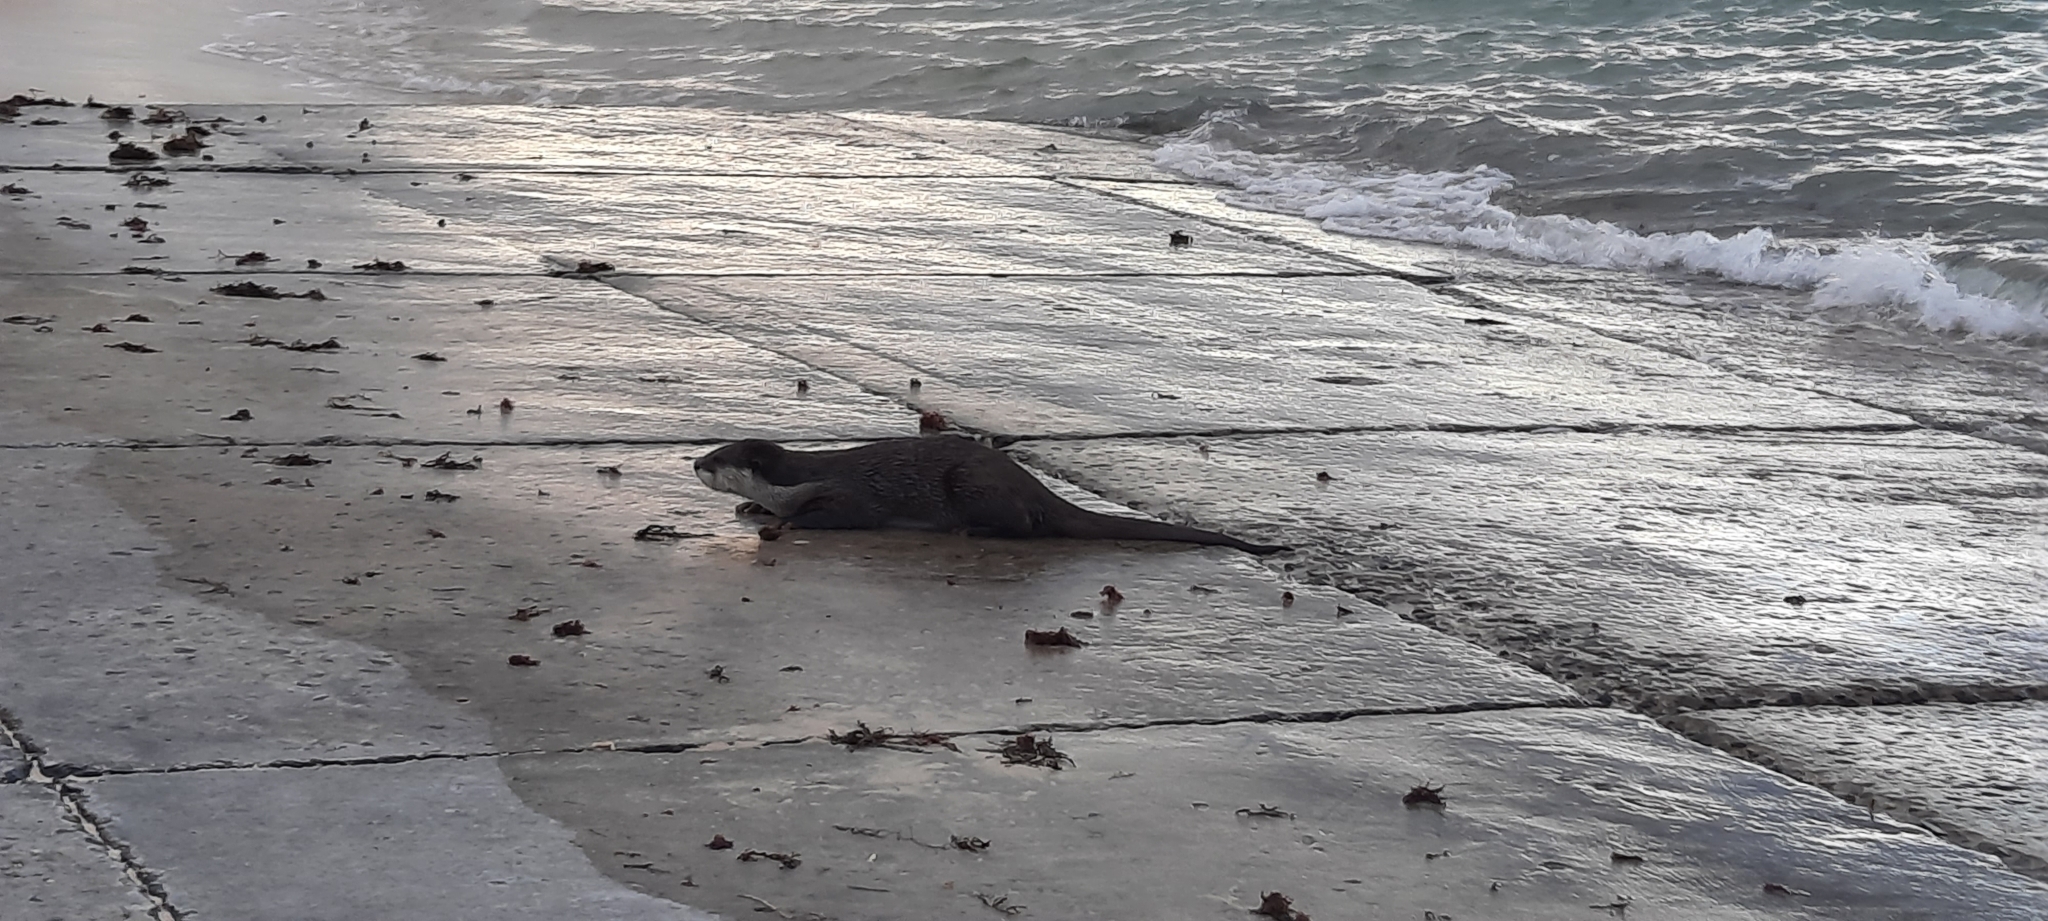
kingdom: Animalia
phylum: Chordata
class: Mammalia
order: Carnivora
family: Mustelidae
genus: Aonyx
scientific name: Aonyx capensis
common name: African clawless otter
